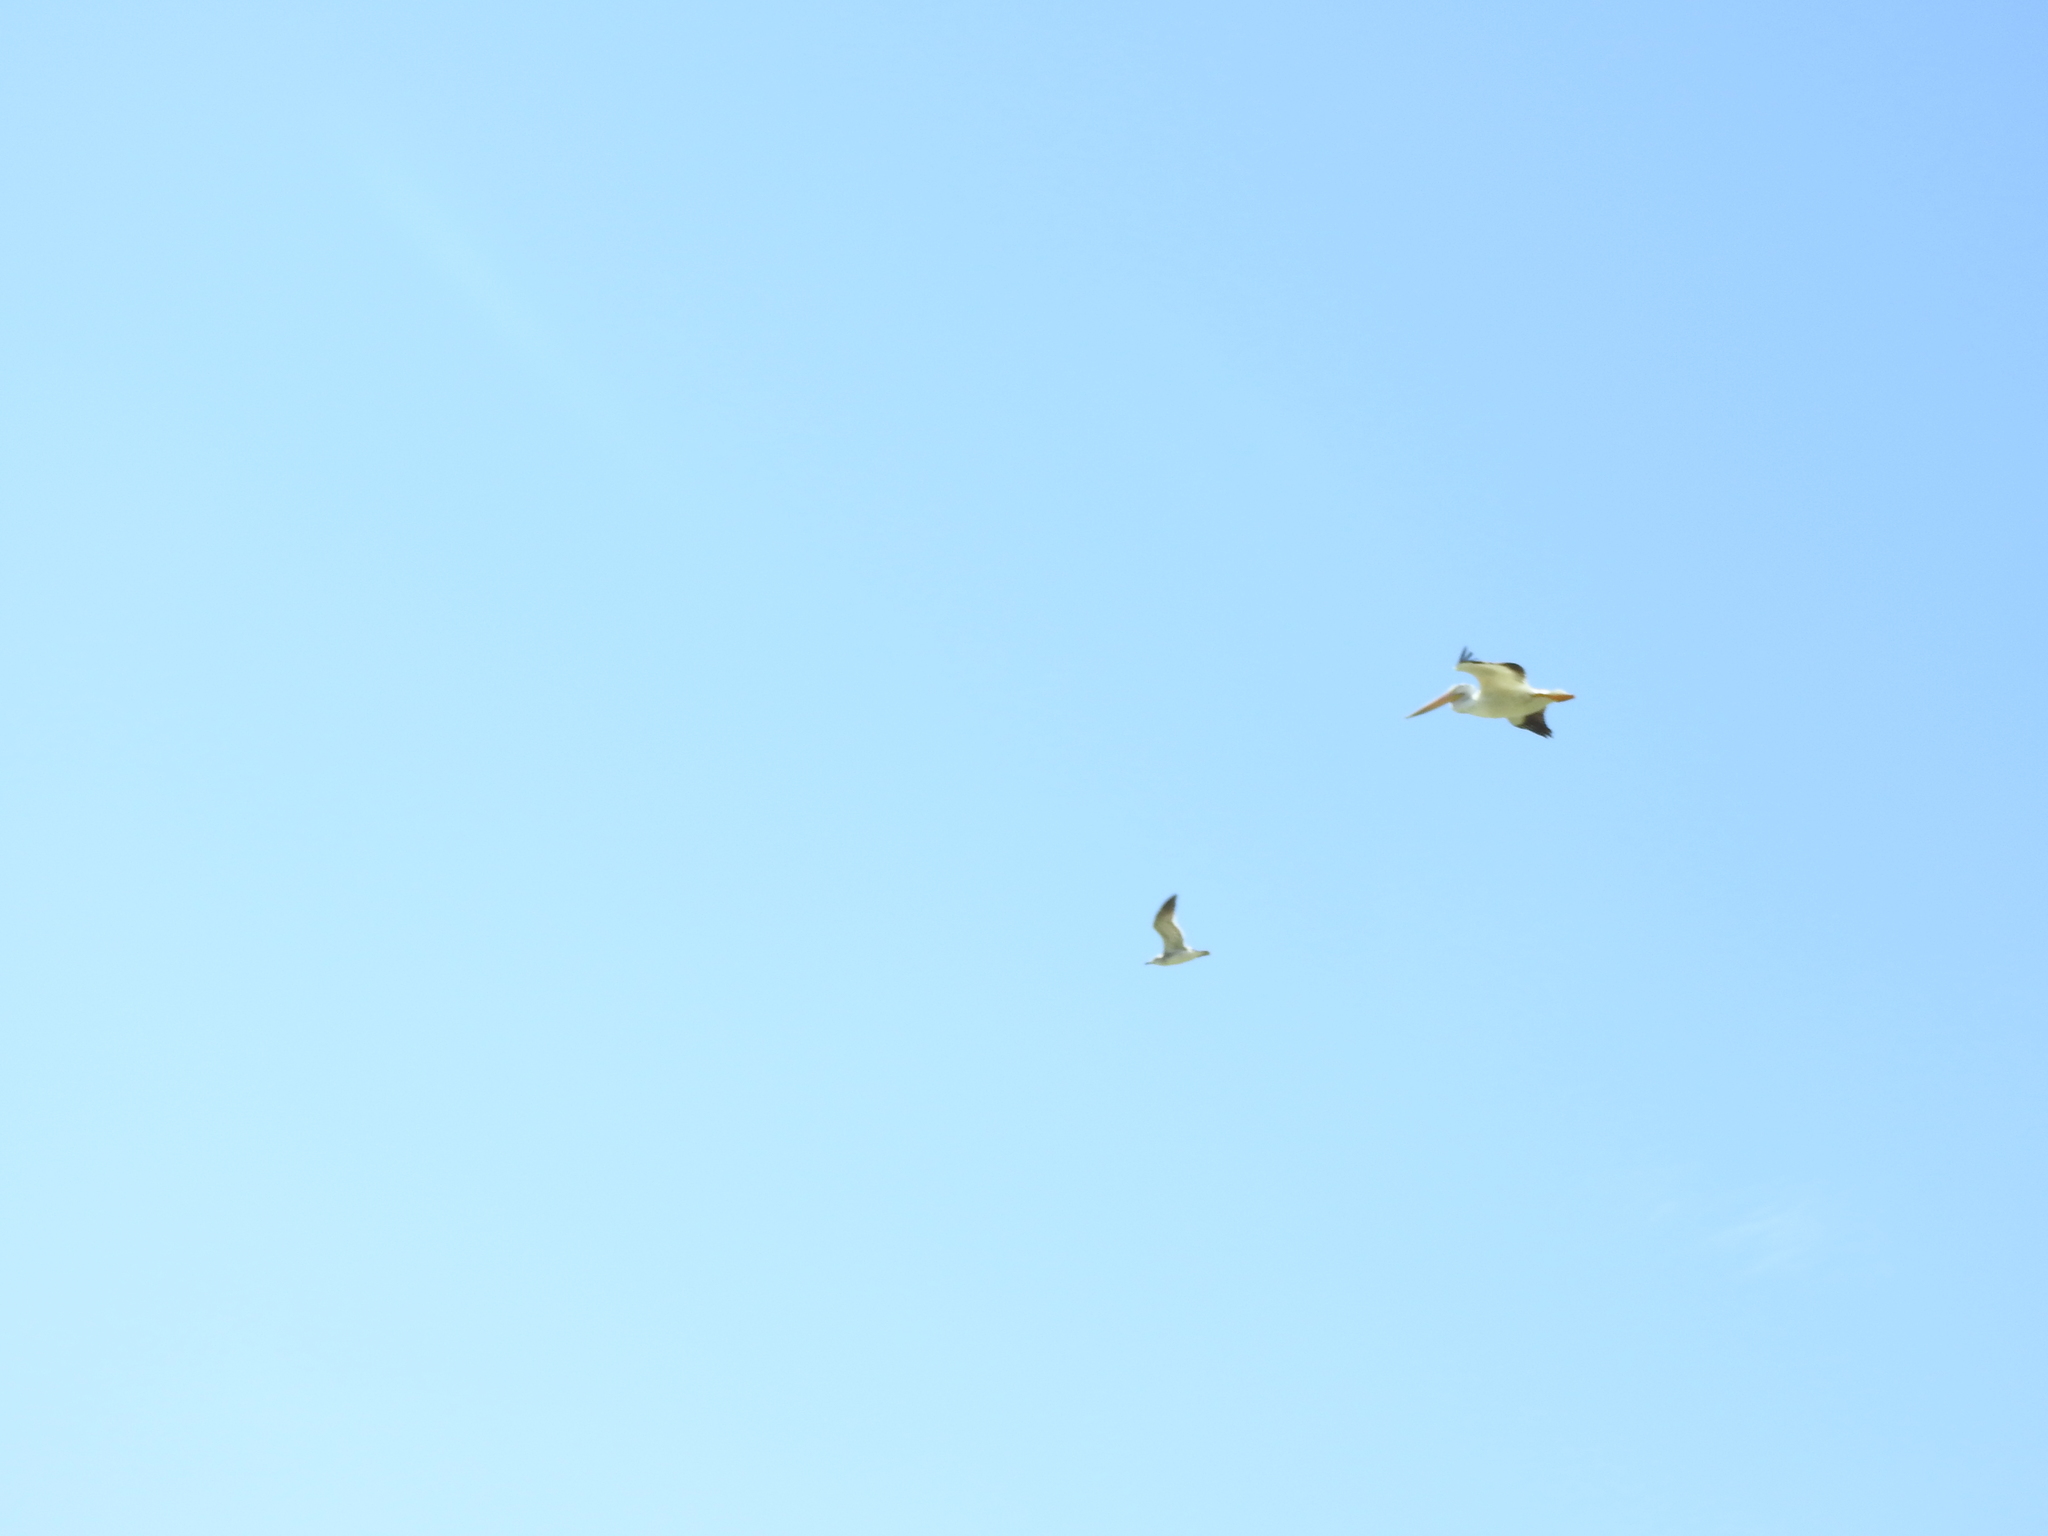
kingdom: Animalia
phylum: Chordata
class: Aves
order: Pelecaniformes
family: Pelecanidae
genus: Pelecanus
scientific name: Pelecanus erythrorhynchos
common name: American white pelican
